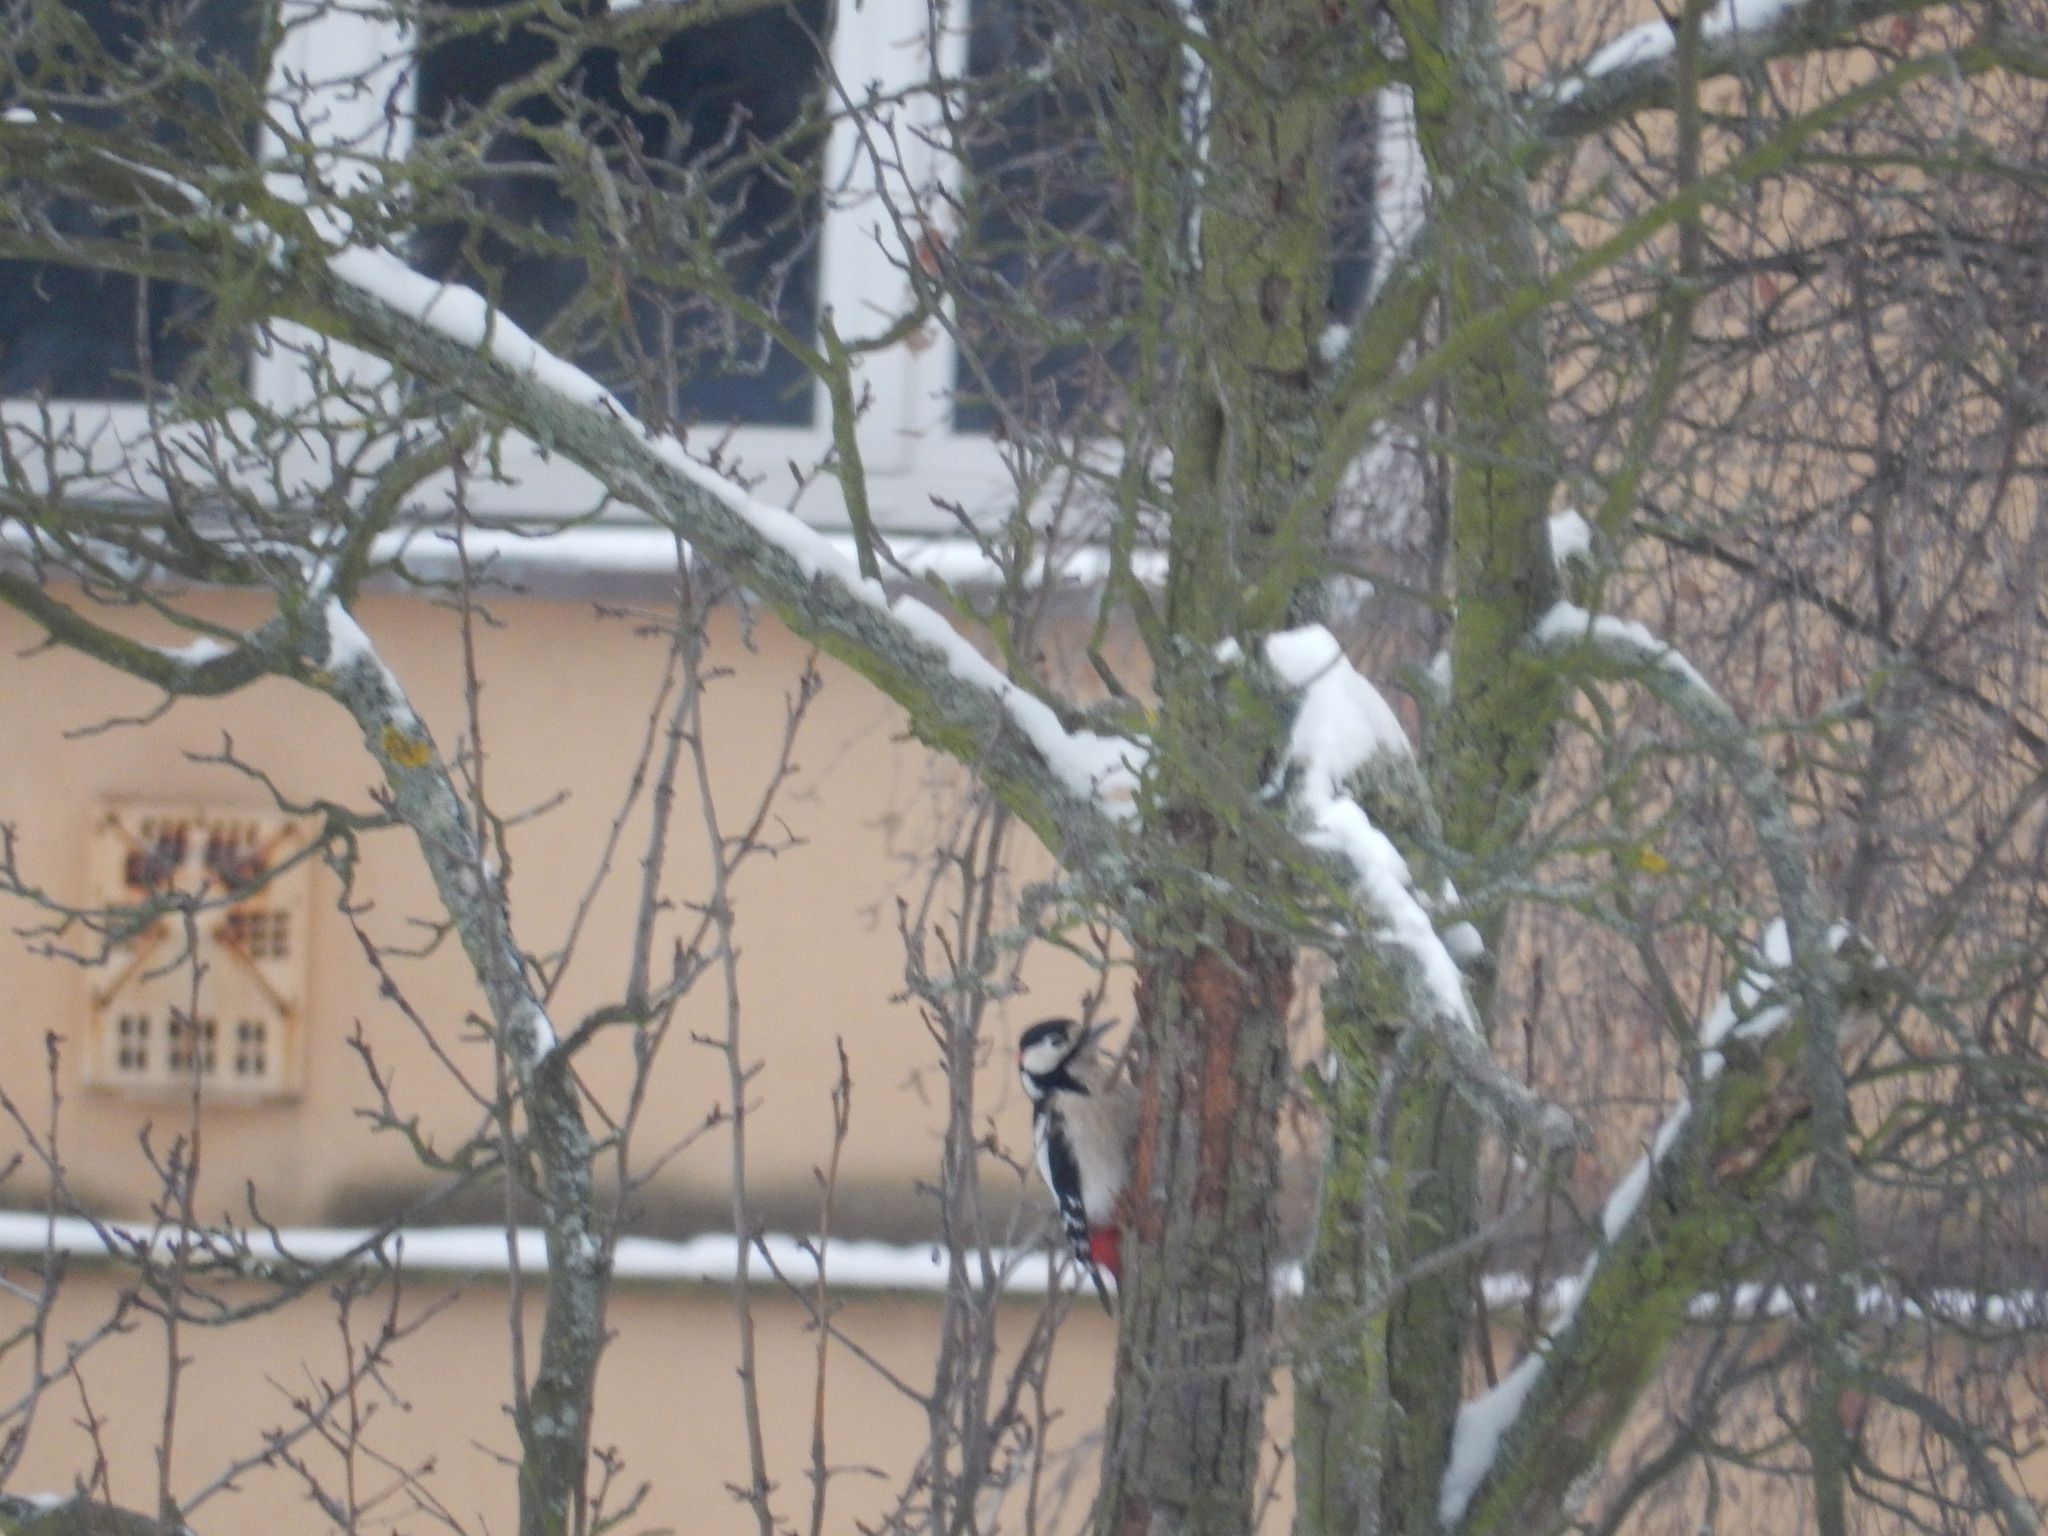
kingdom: Animalia
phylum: Chordata
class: Aves
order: Piciformes
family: Picidae
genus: Dendrocopos
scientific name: Dendrocopos major
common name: Great spotted woodpecker
